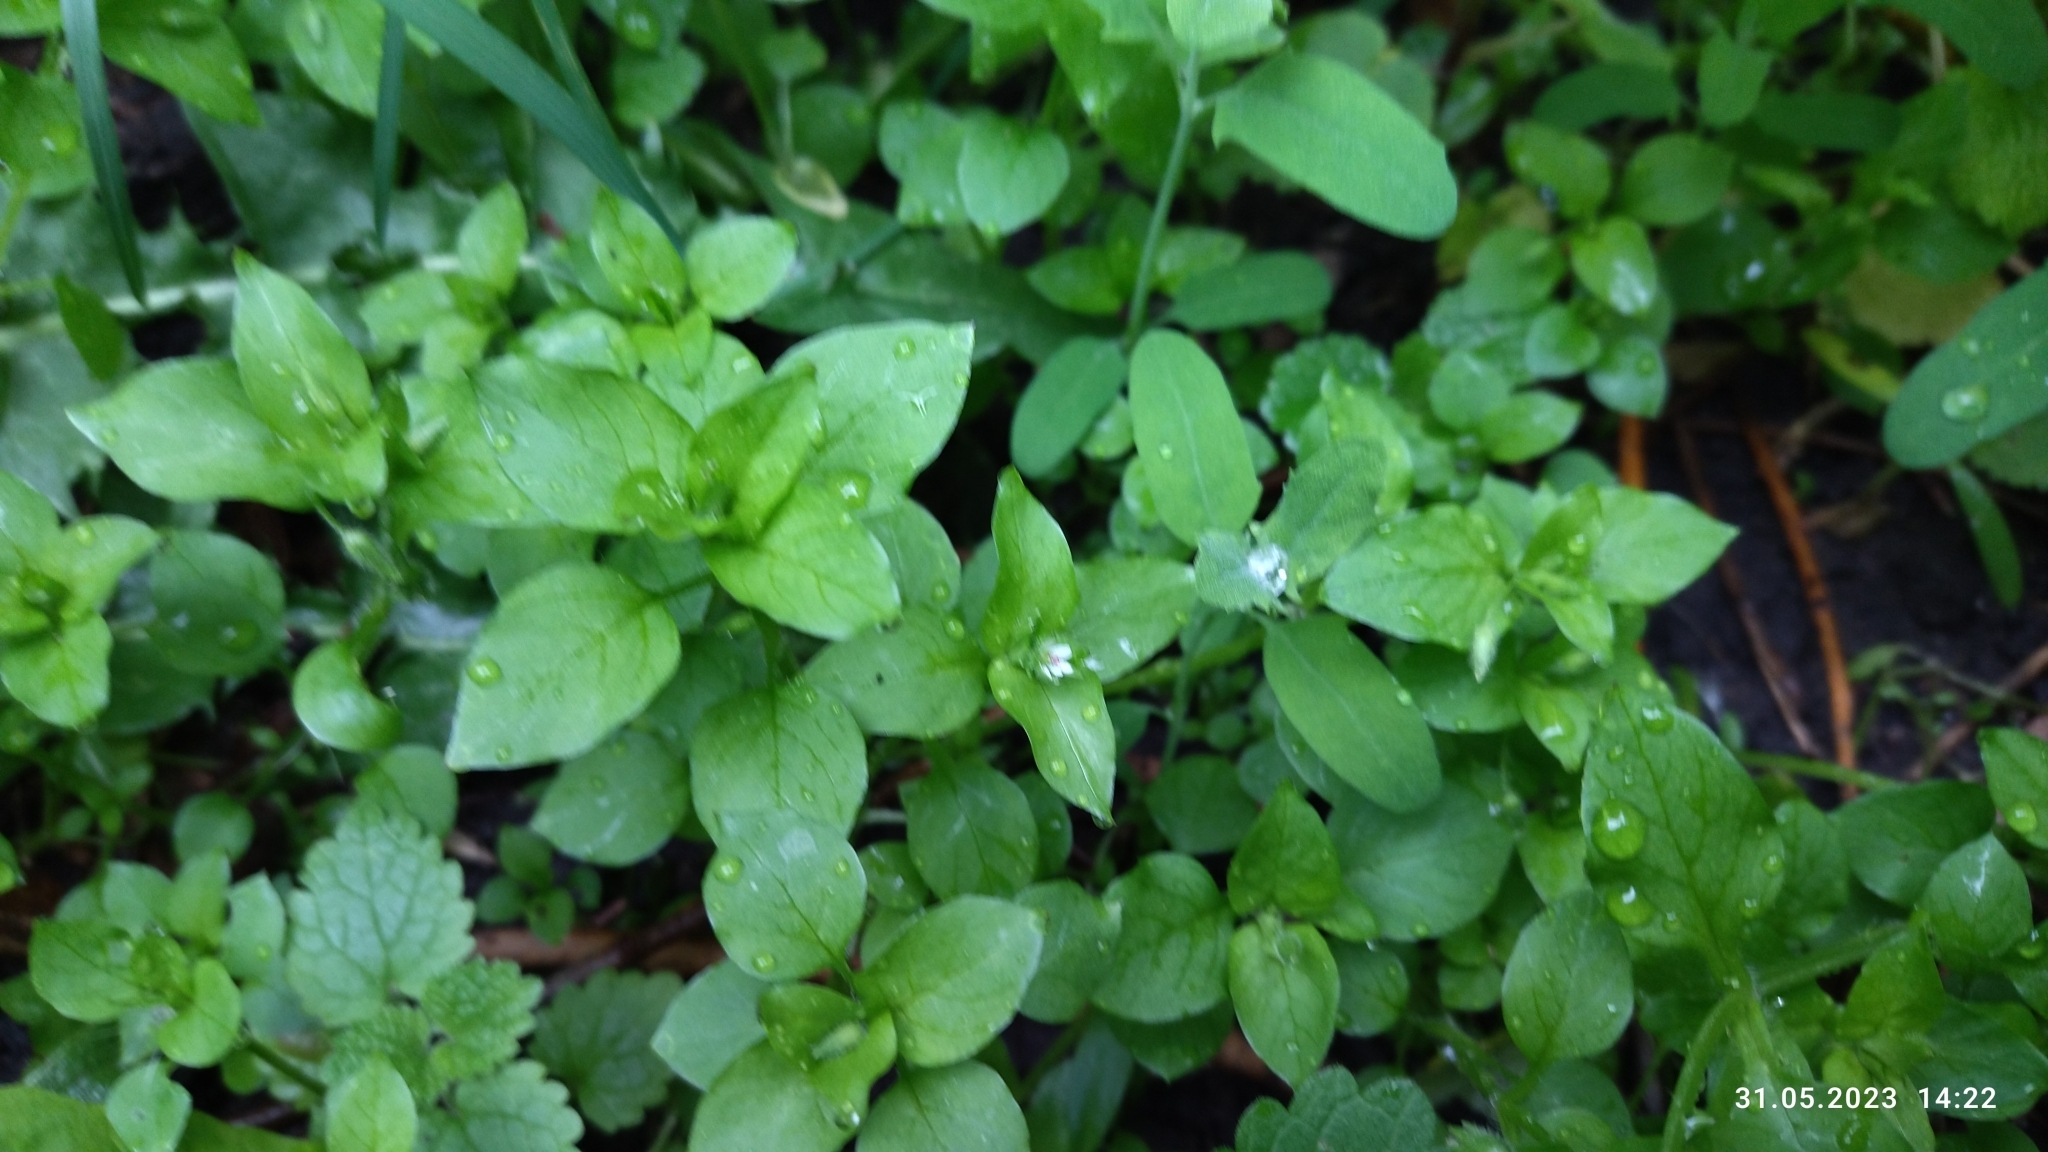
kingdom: Plantae
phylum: Tracheophyta
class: Magnoliopsida
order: Caryophyllales
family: Caryophyllaceae
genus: Stellaria
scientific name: Stellaria media
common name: Common chickweed
